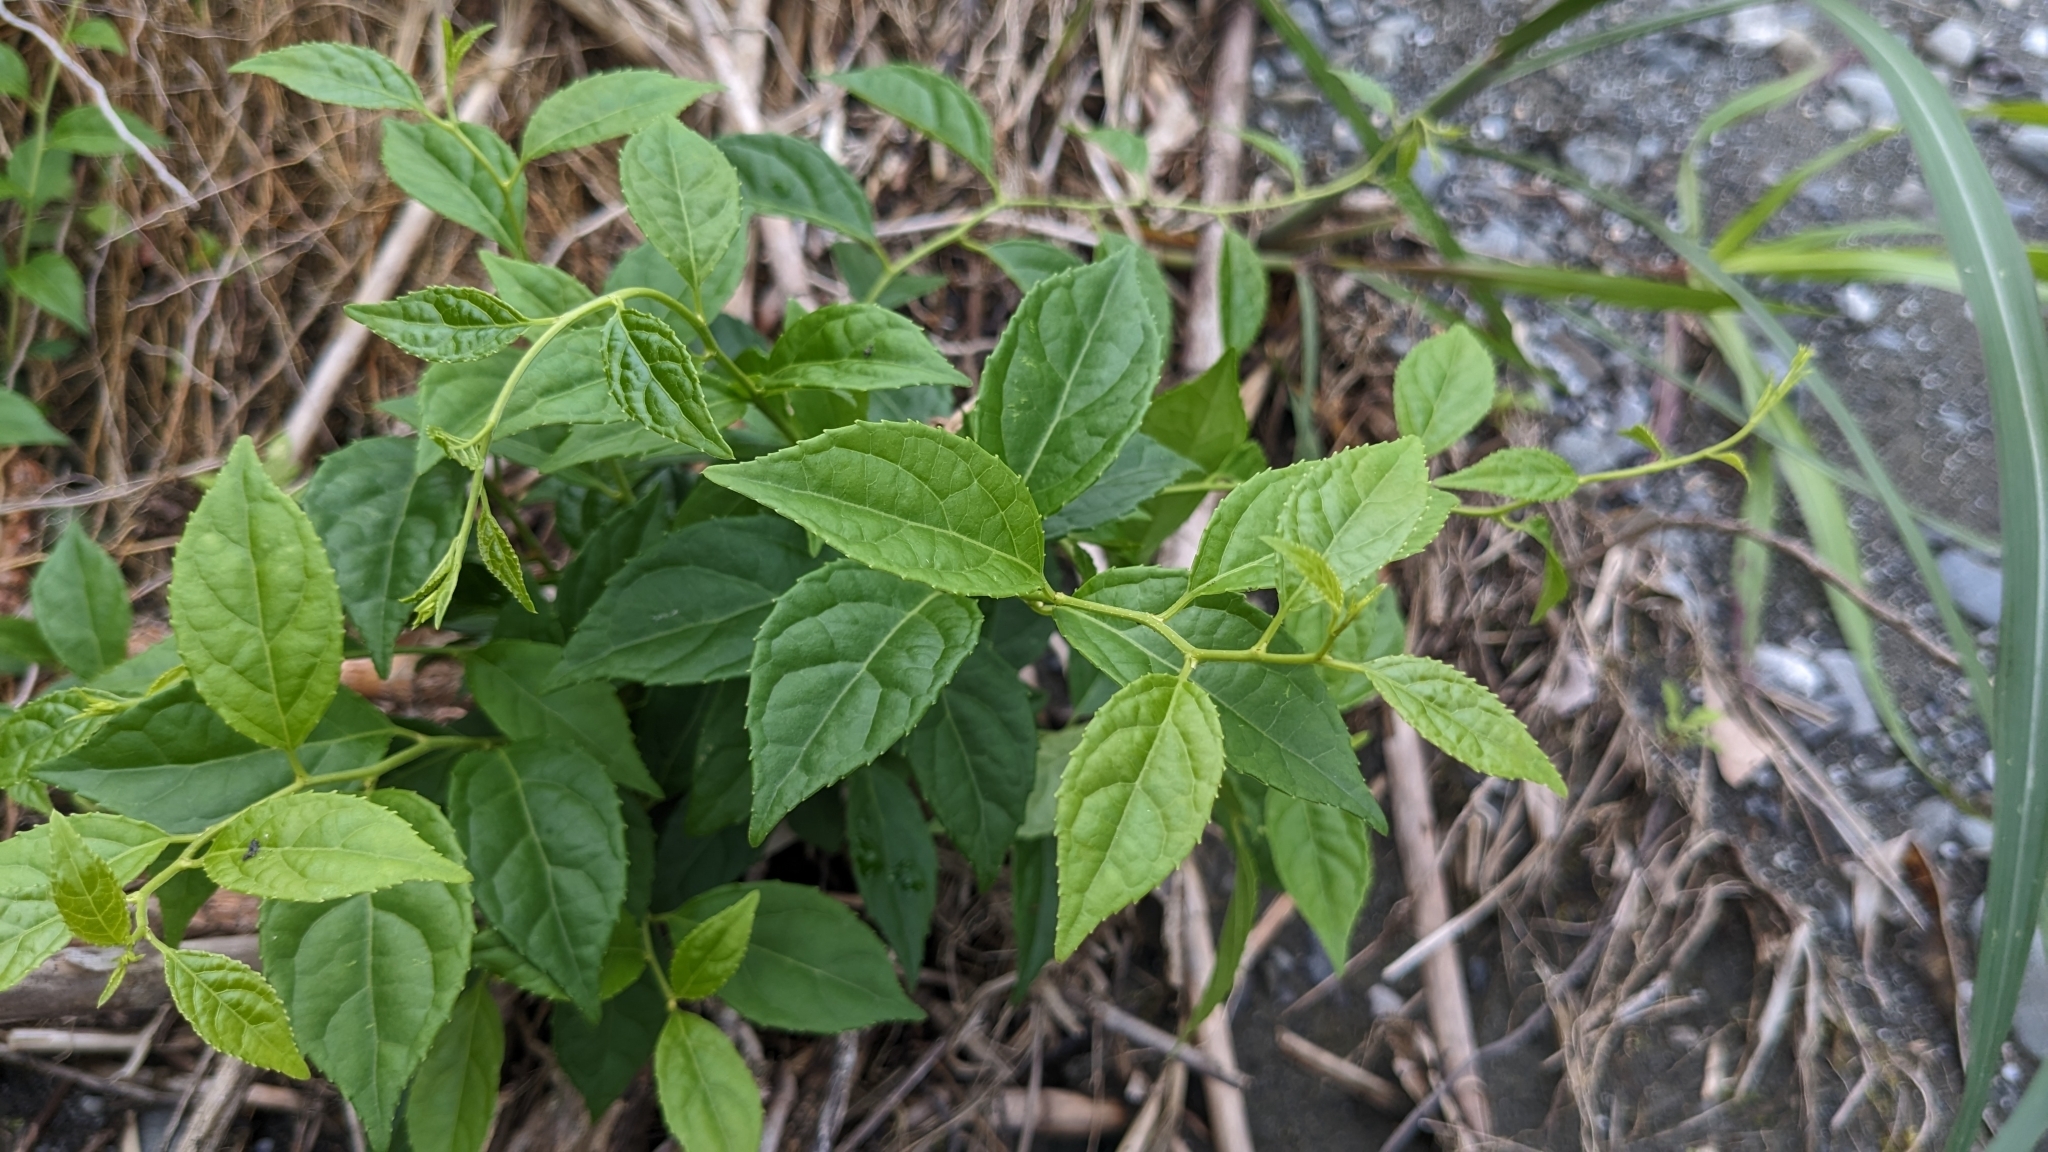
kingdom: Plantae
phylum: Tracheophyta
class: Magnoliopsida
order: Celastrales
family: Celastraceae
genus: Celastrus
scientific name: Celastrus punctatus
